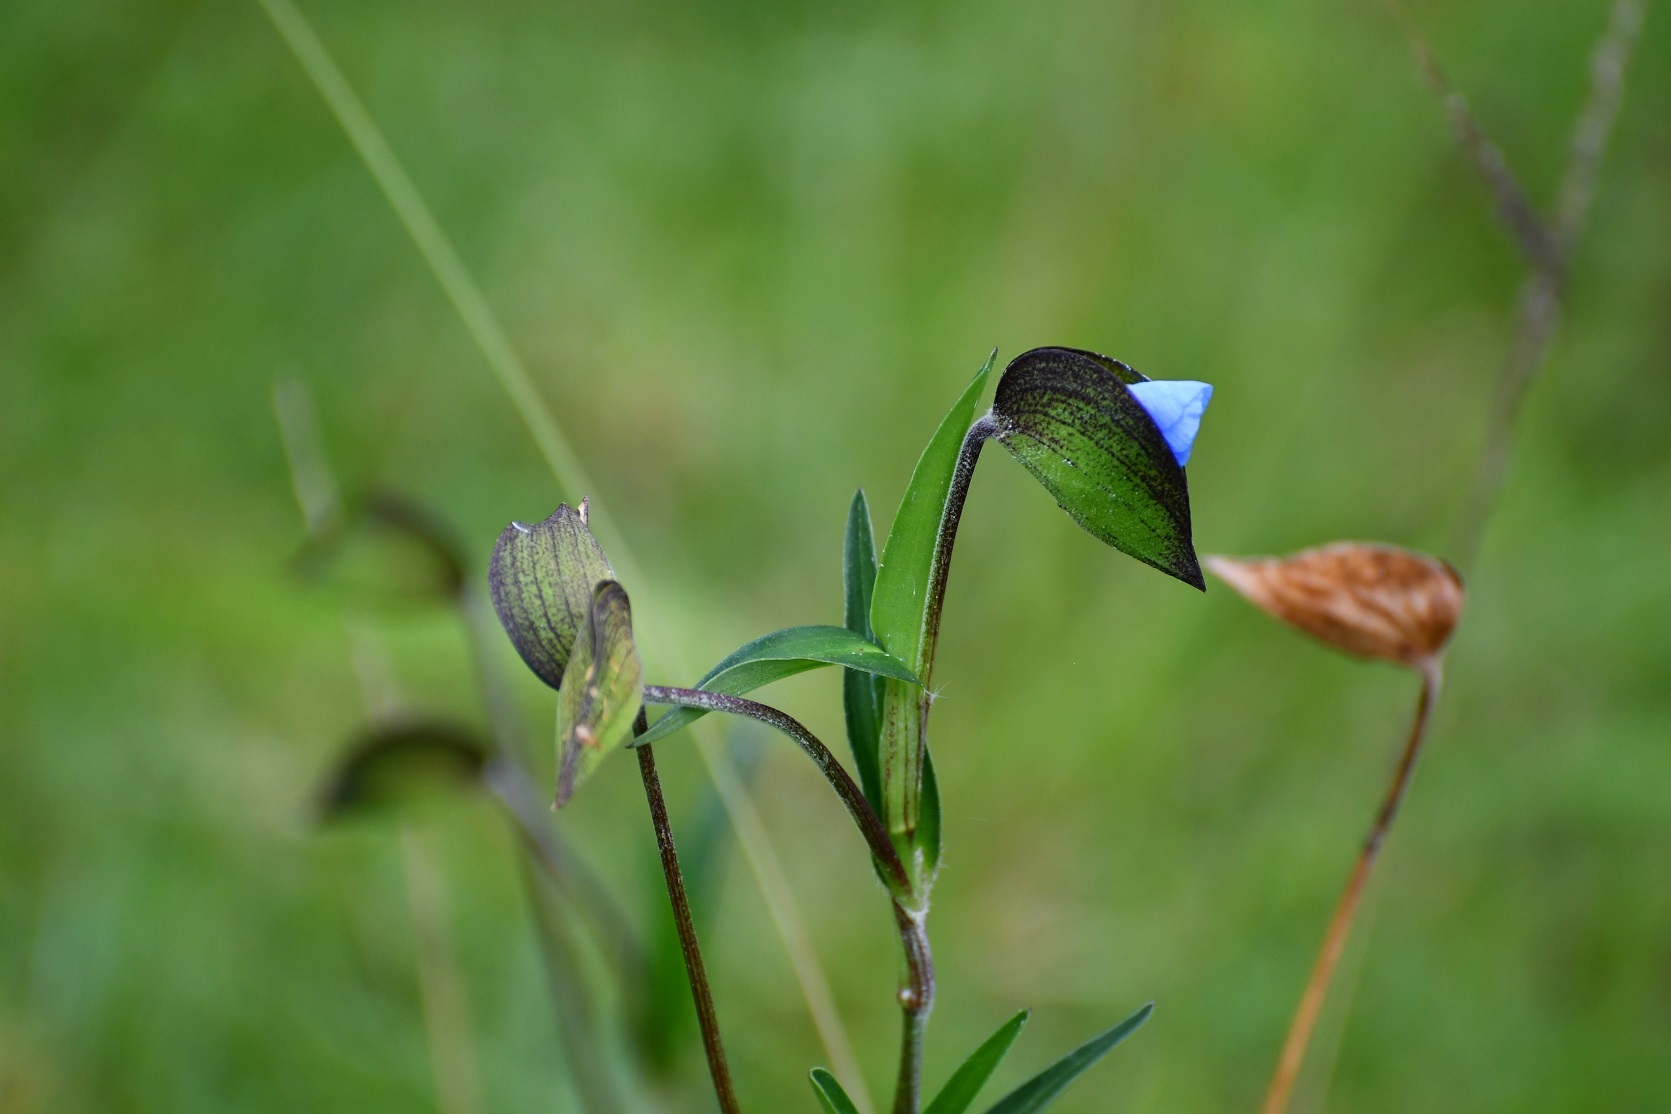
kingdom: Plantae
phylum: Tracheophyta
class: Liliopsida
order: Commelinales
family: Commelinaceae
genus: Commelina
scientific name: Commelina tuberosa
